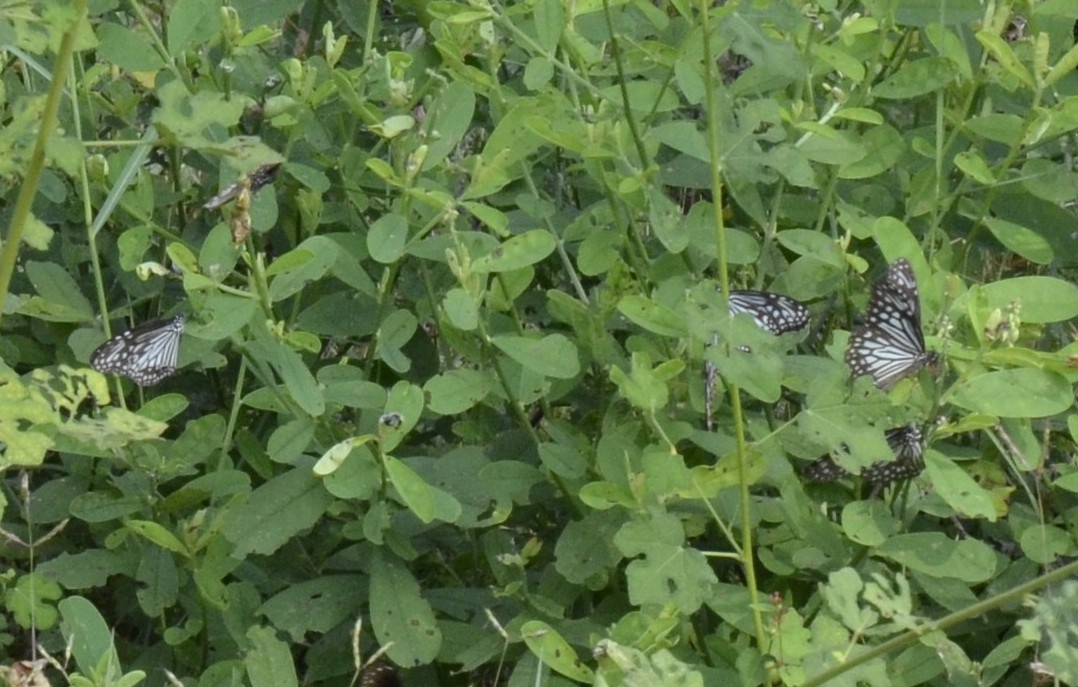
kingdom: Animalia
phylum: Arthropoda
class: Insecta
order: Lepidoptera
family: Nymphalidae
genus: Parantica
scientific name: Parantica aglea
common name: Glassy tiger
